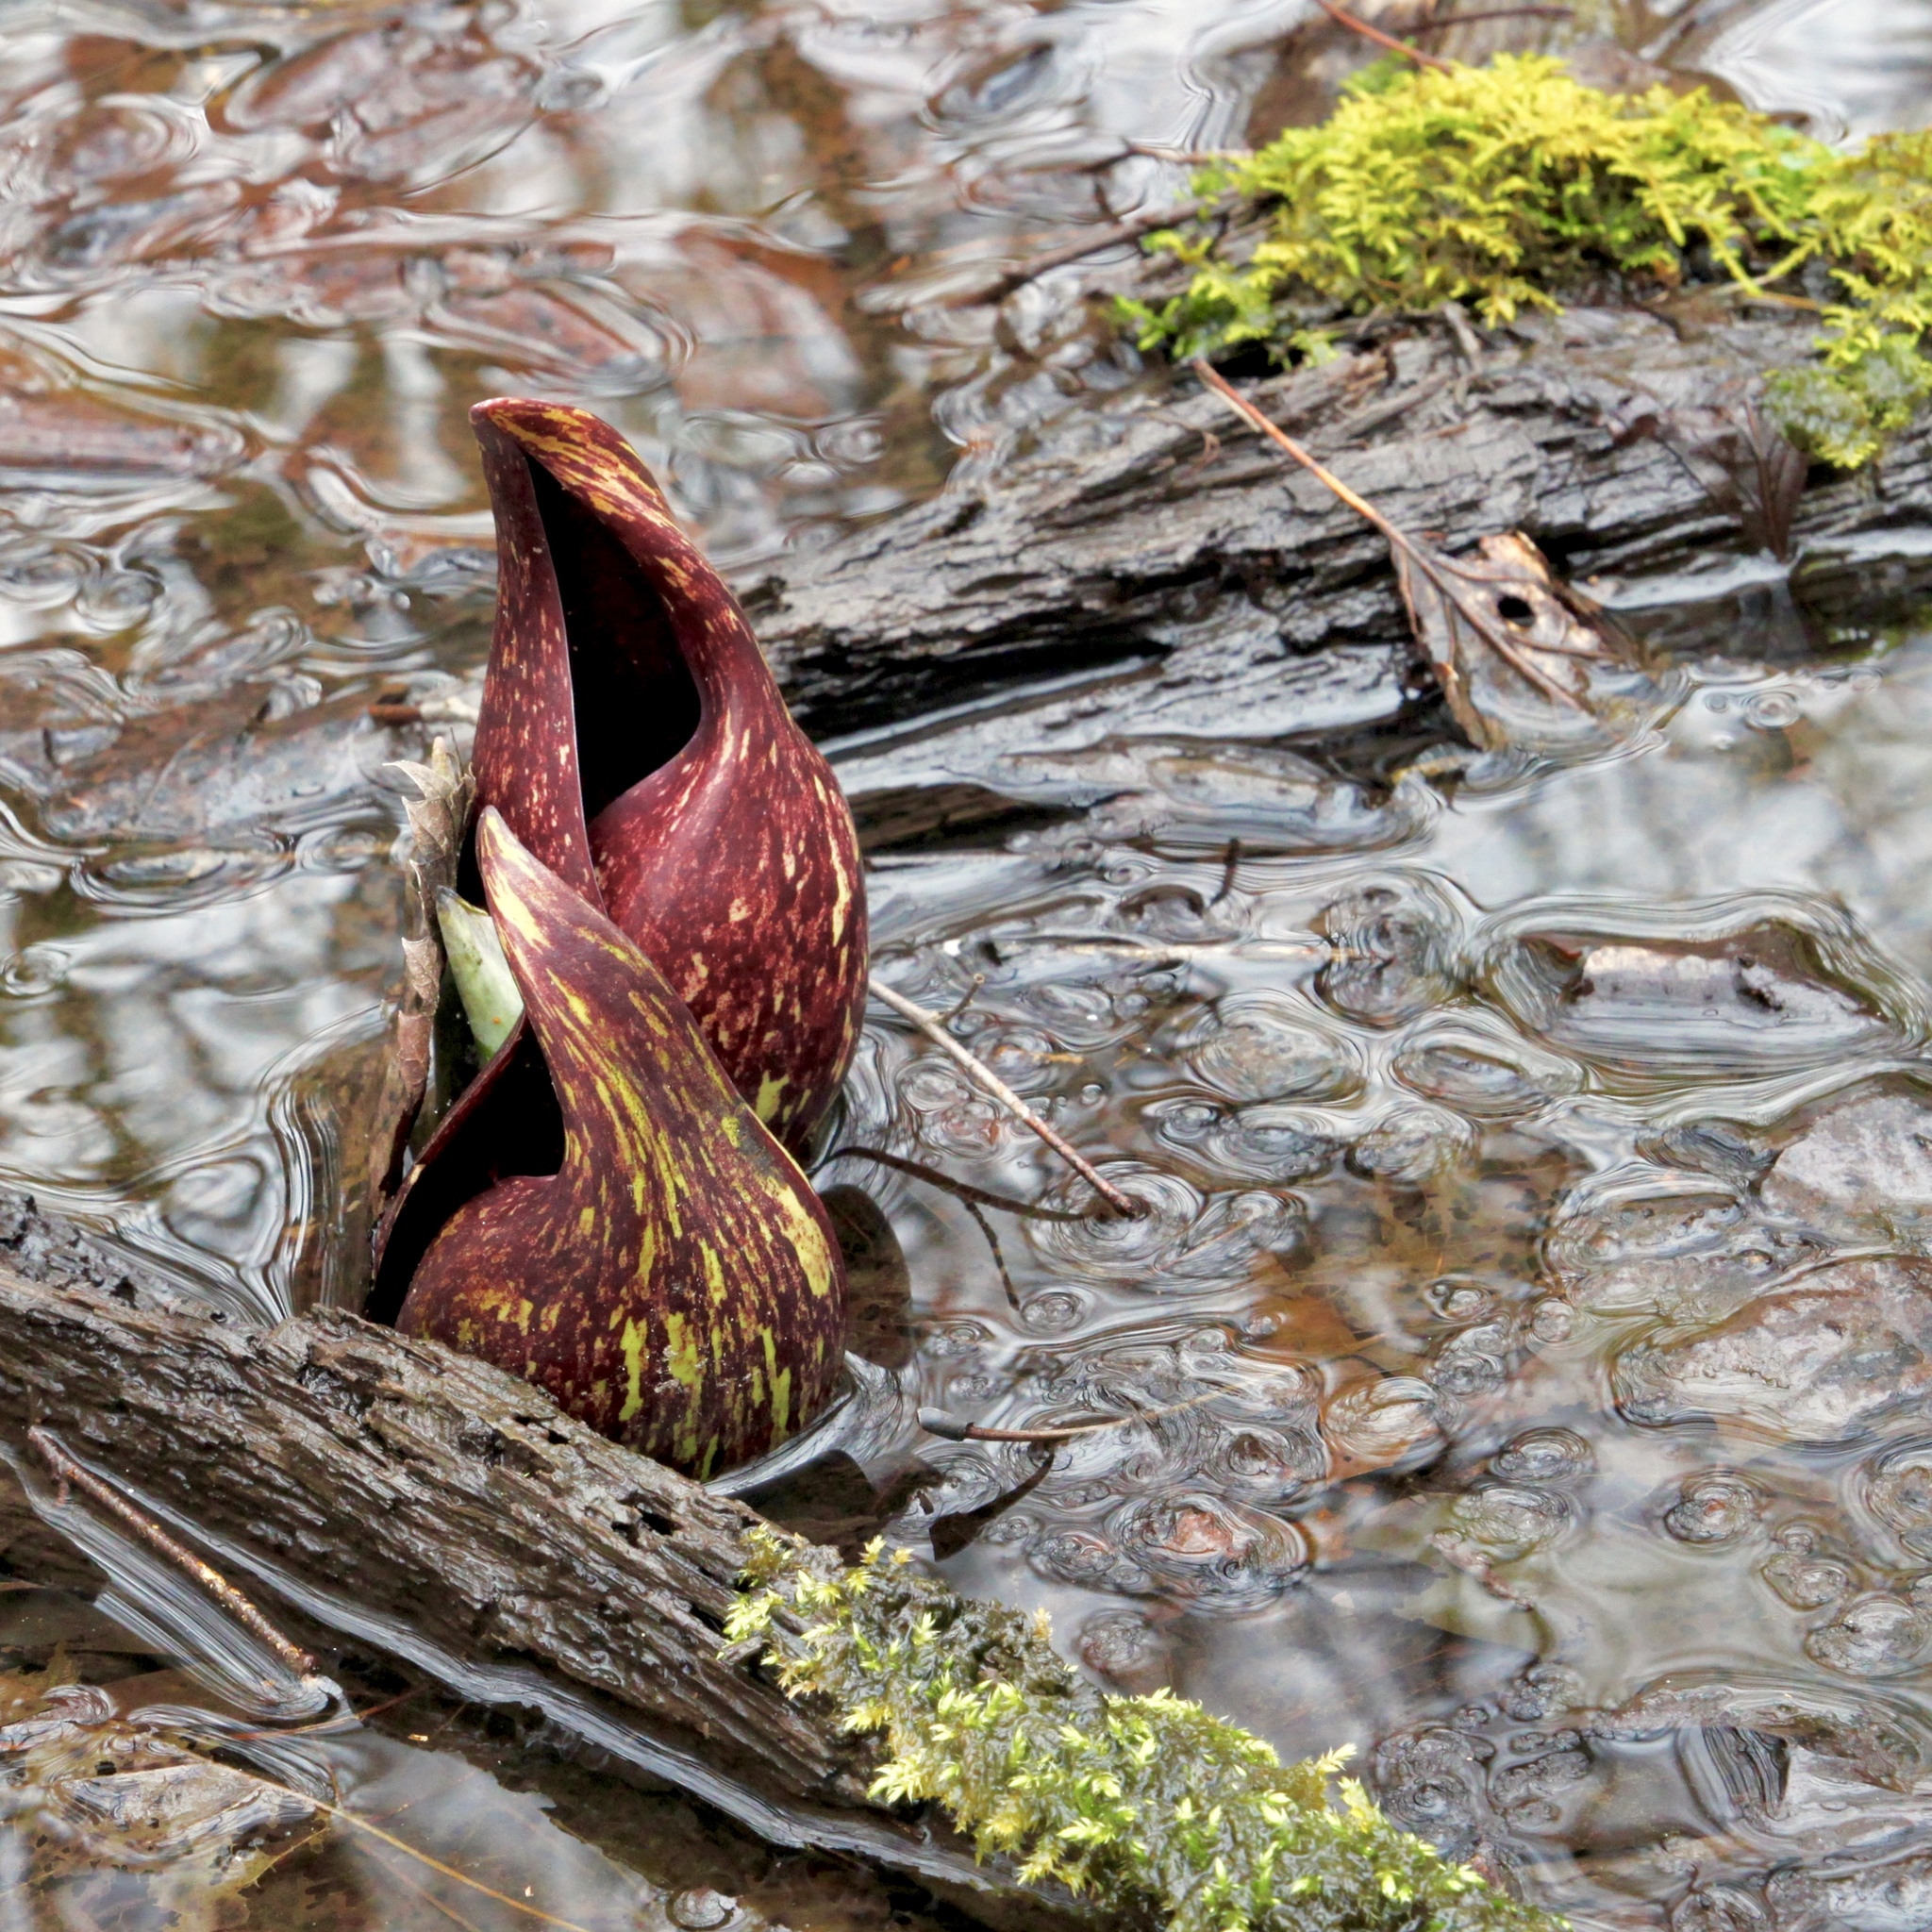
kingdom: Plantae
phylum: Tracheophyta
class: Liliopsida
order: Alismatales
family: Araceae
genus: Symplocarpus
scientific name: Symplocarpus foetidus
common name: Eastern skunk cabbage
